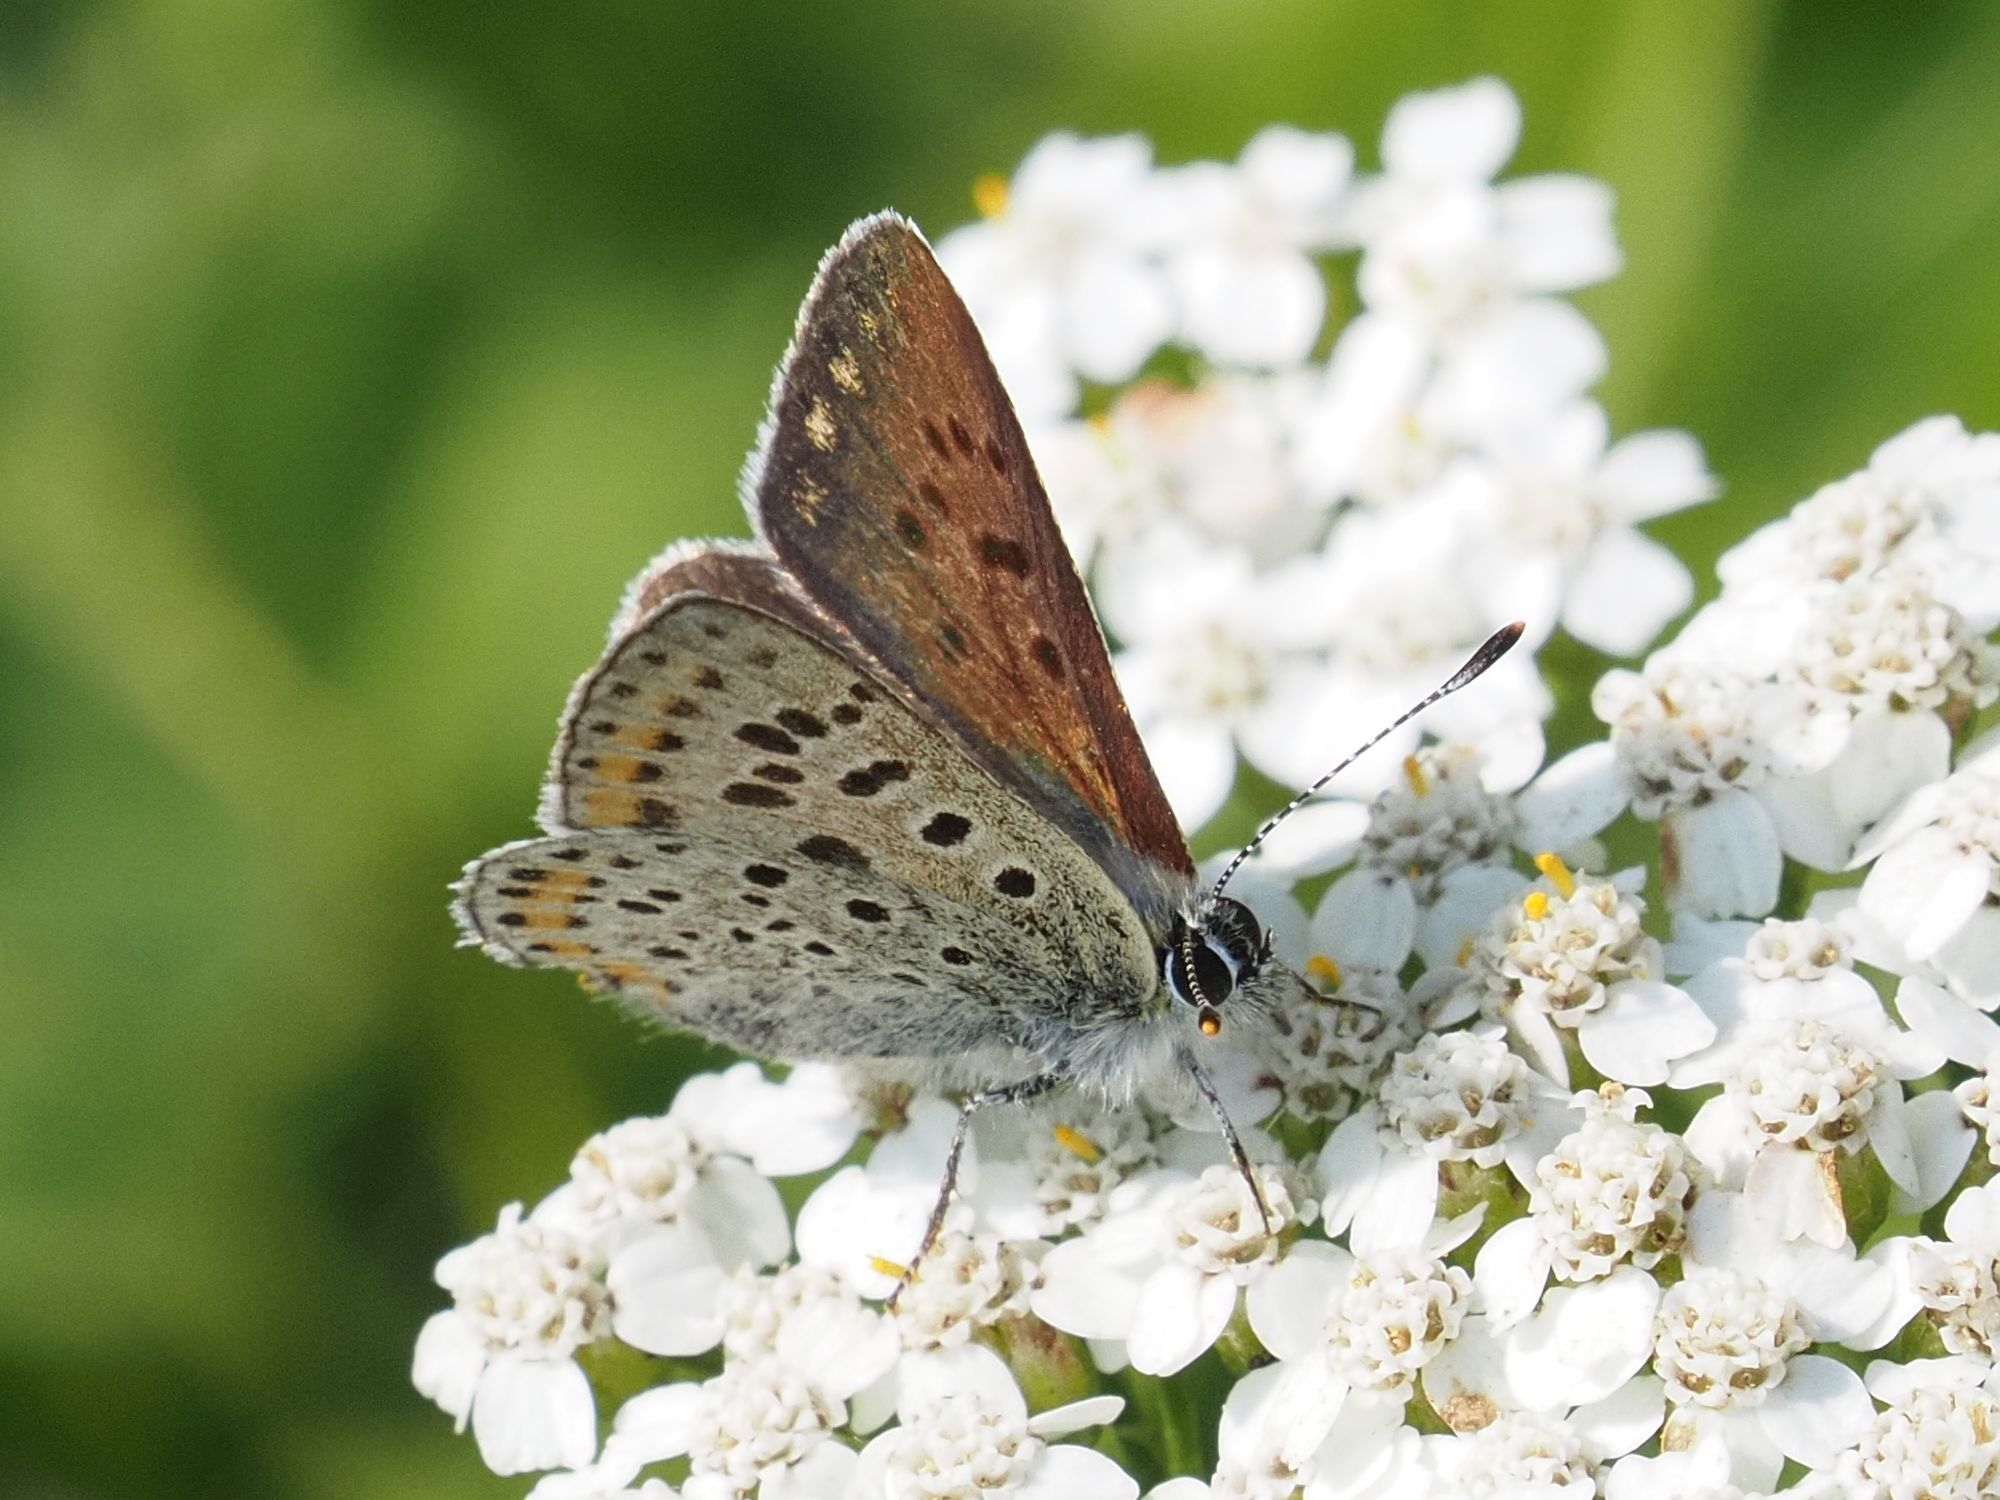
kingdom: Animalia
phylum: Arthropoda
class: Insecta
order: Lepidoptera
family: Lycaenidae
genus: Loweia
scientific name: Loweia tityrus
